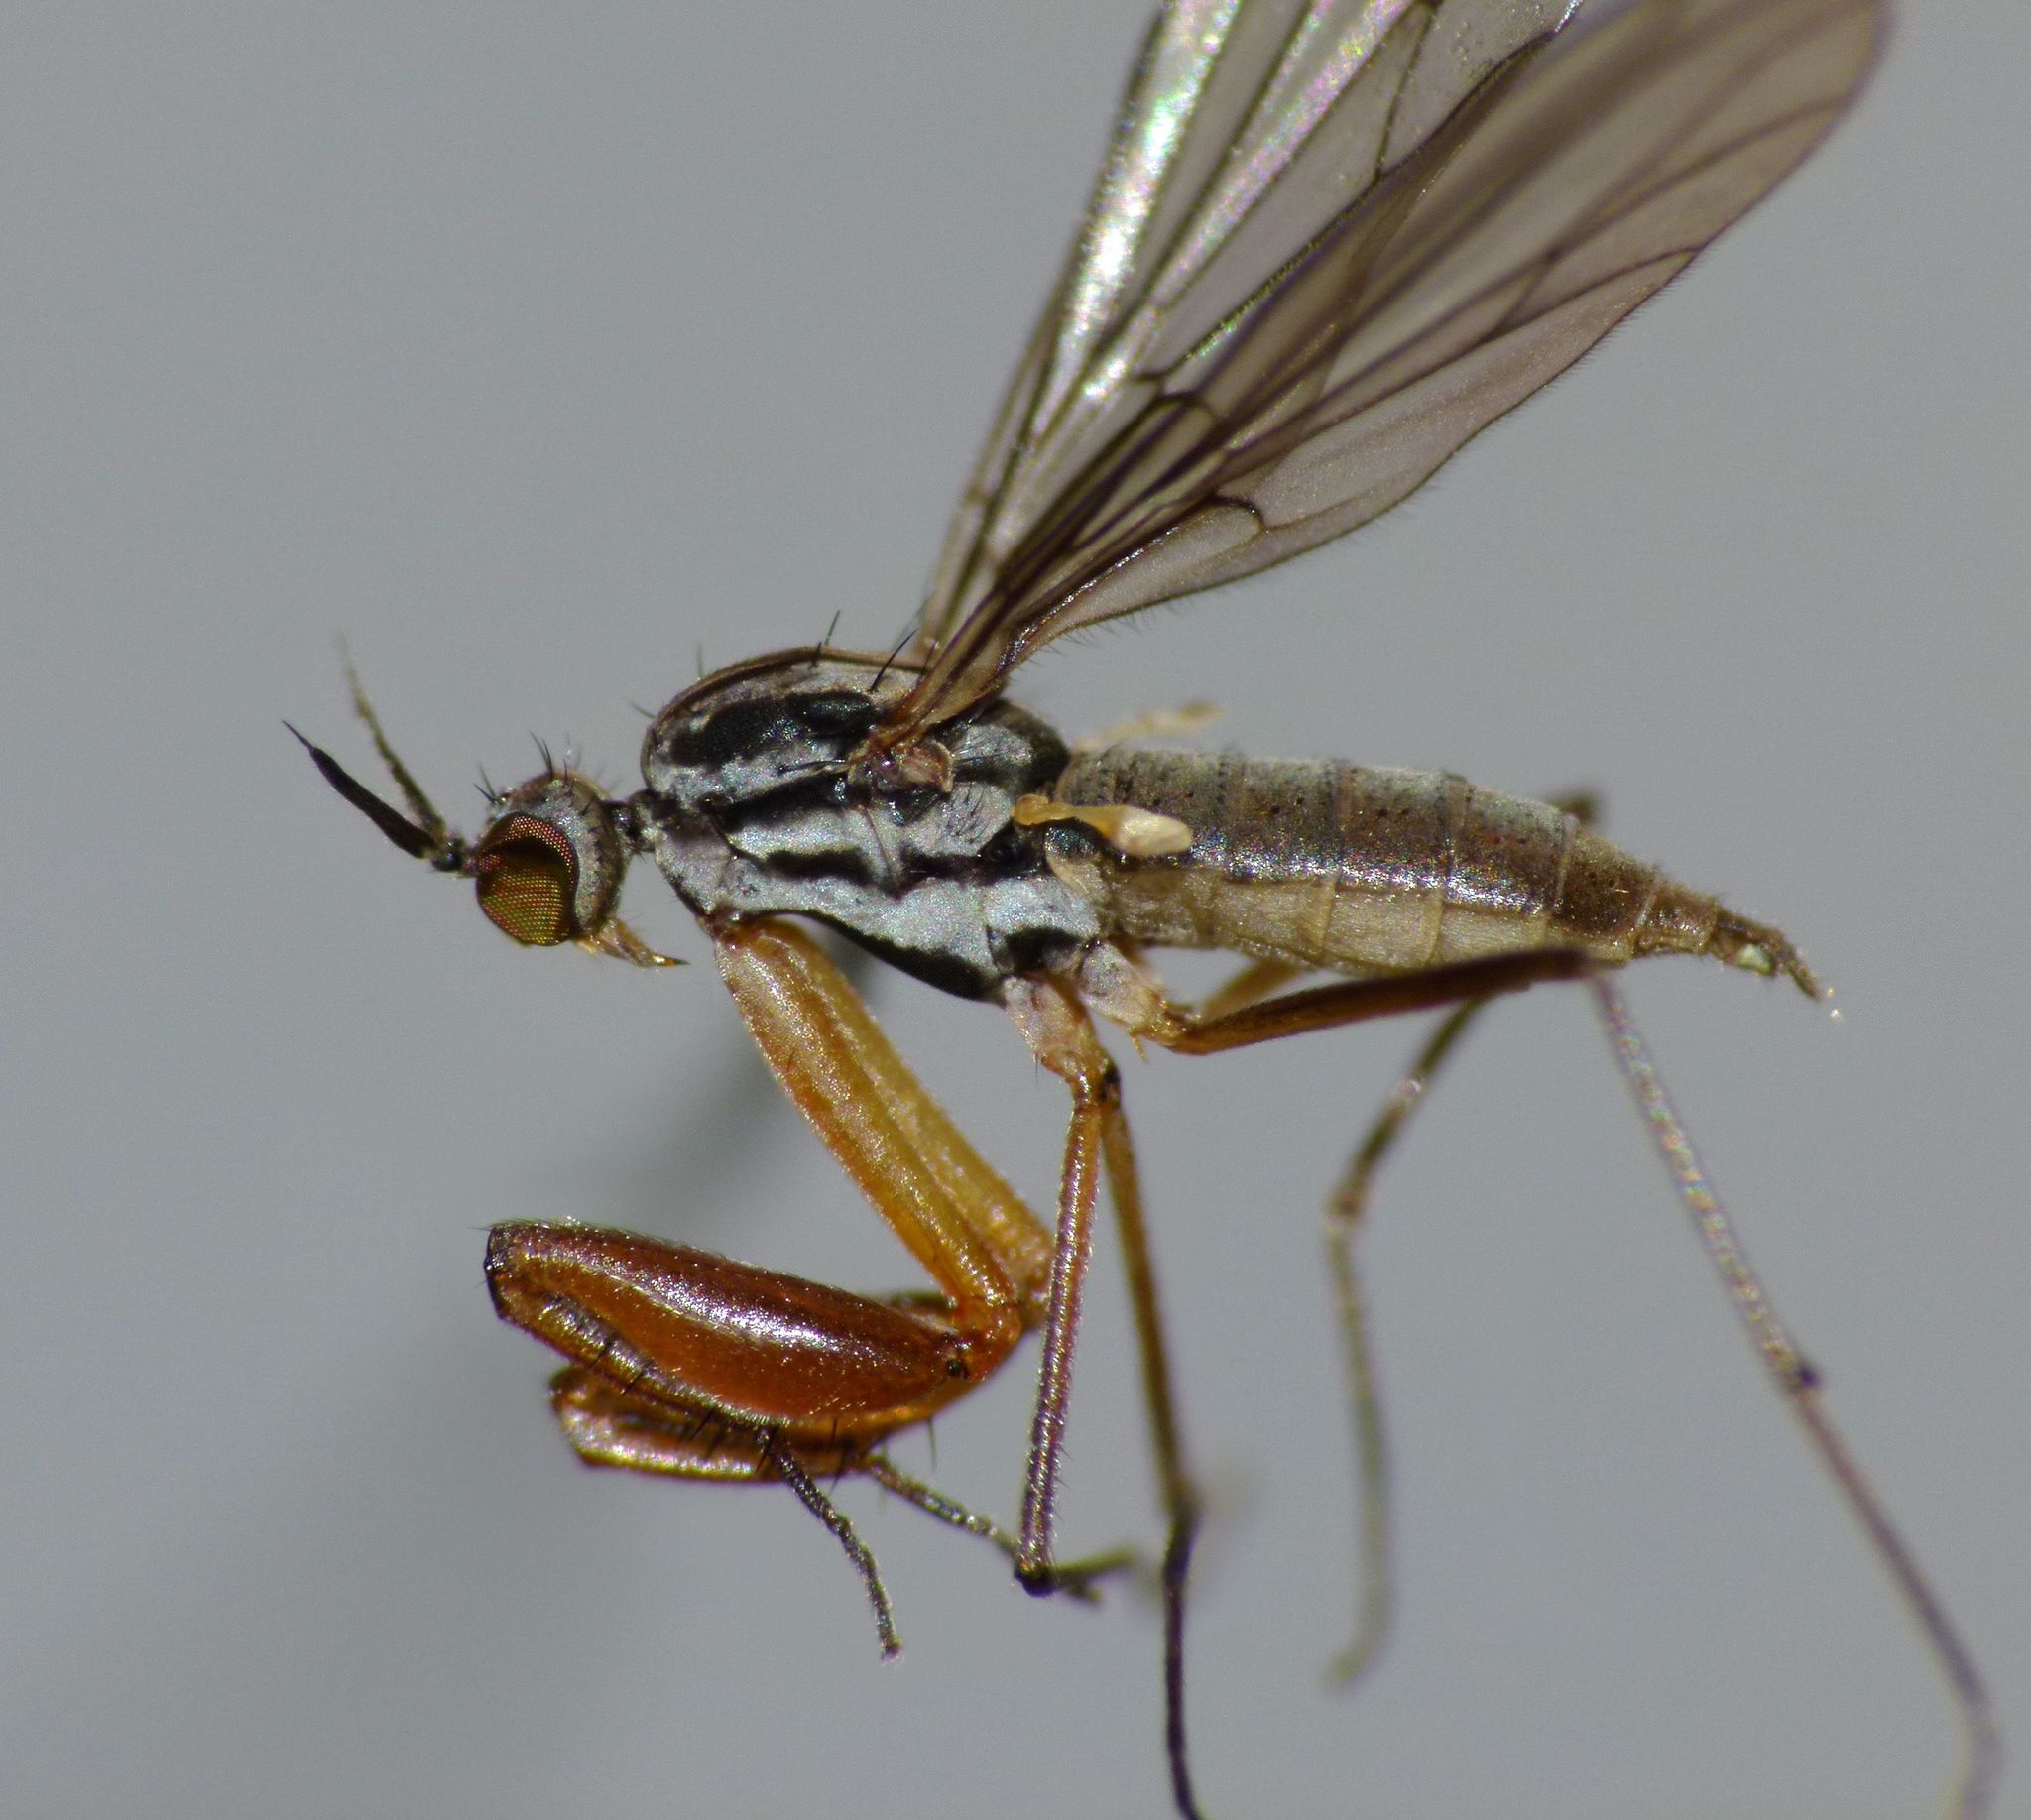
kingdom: Animalia
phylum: Arthropoda
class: Insecta
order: Diptera
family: Empididae
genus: Chelipoda
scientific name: Chelipoda cornigera
